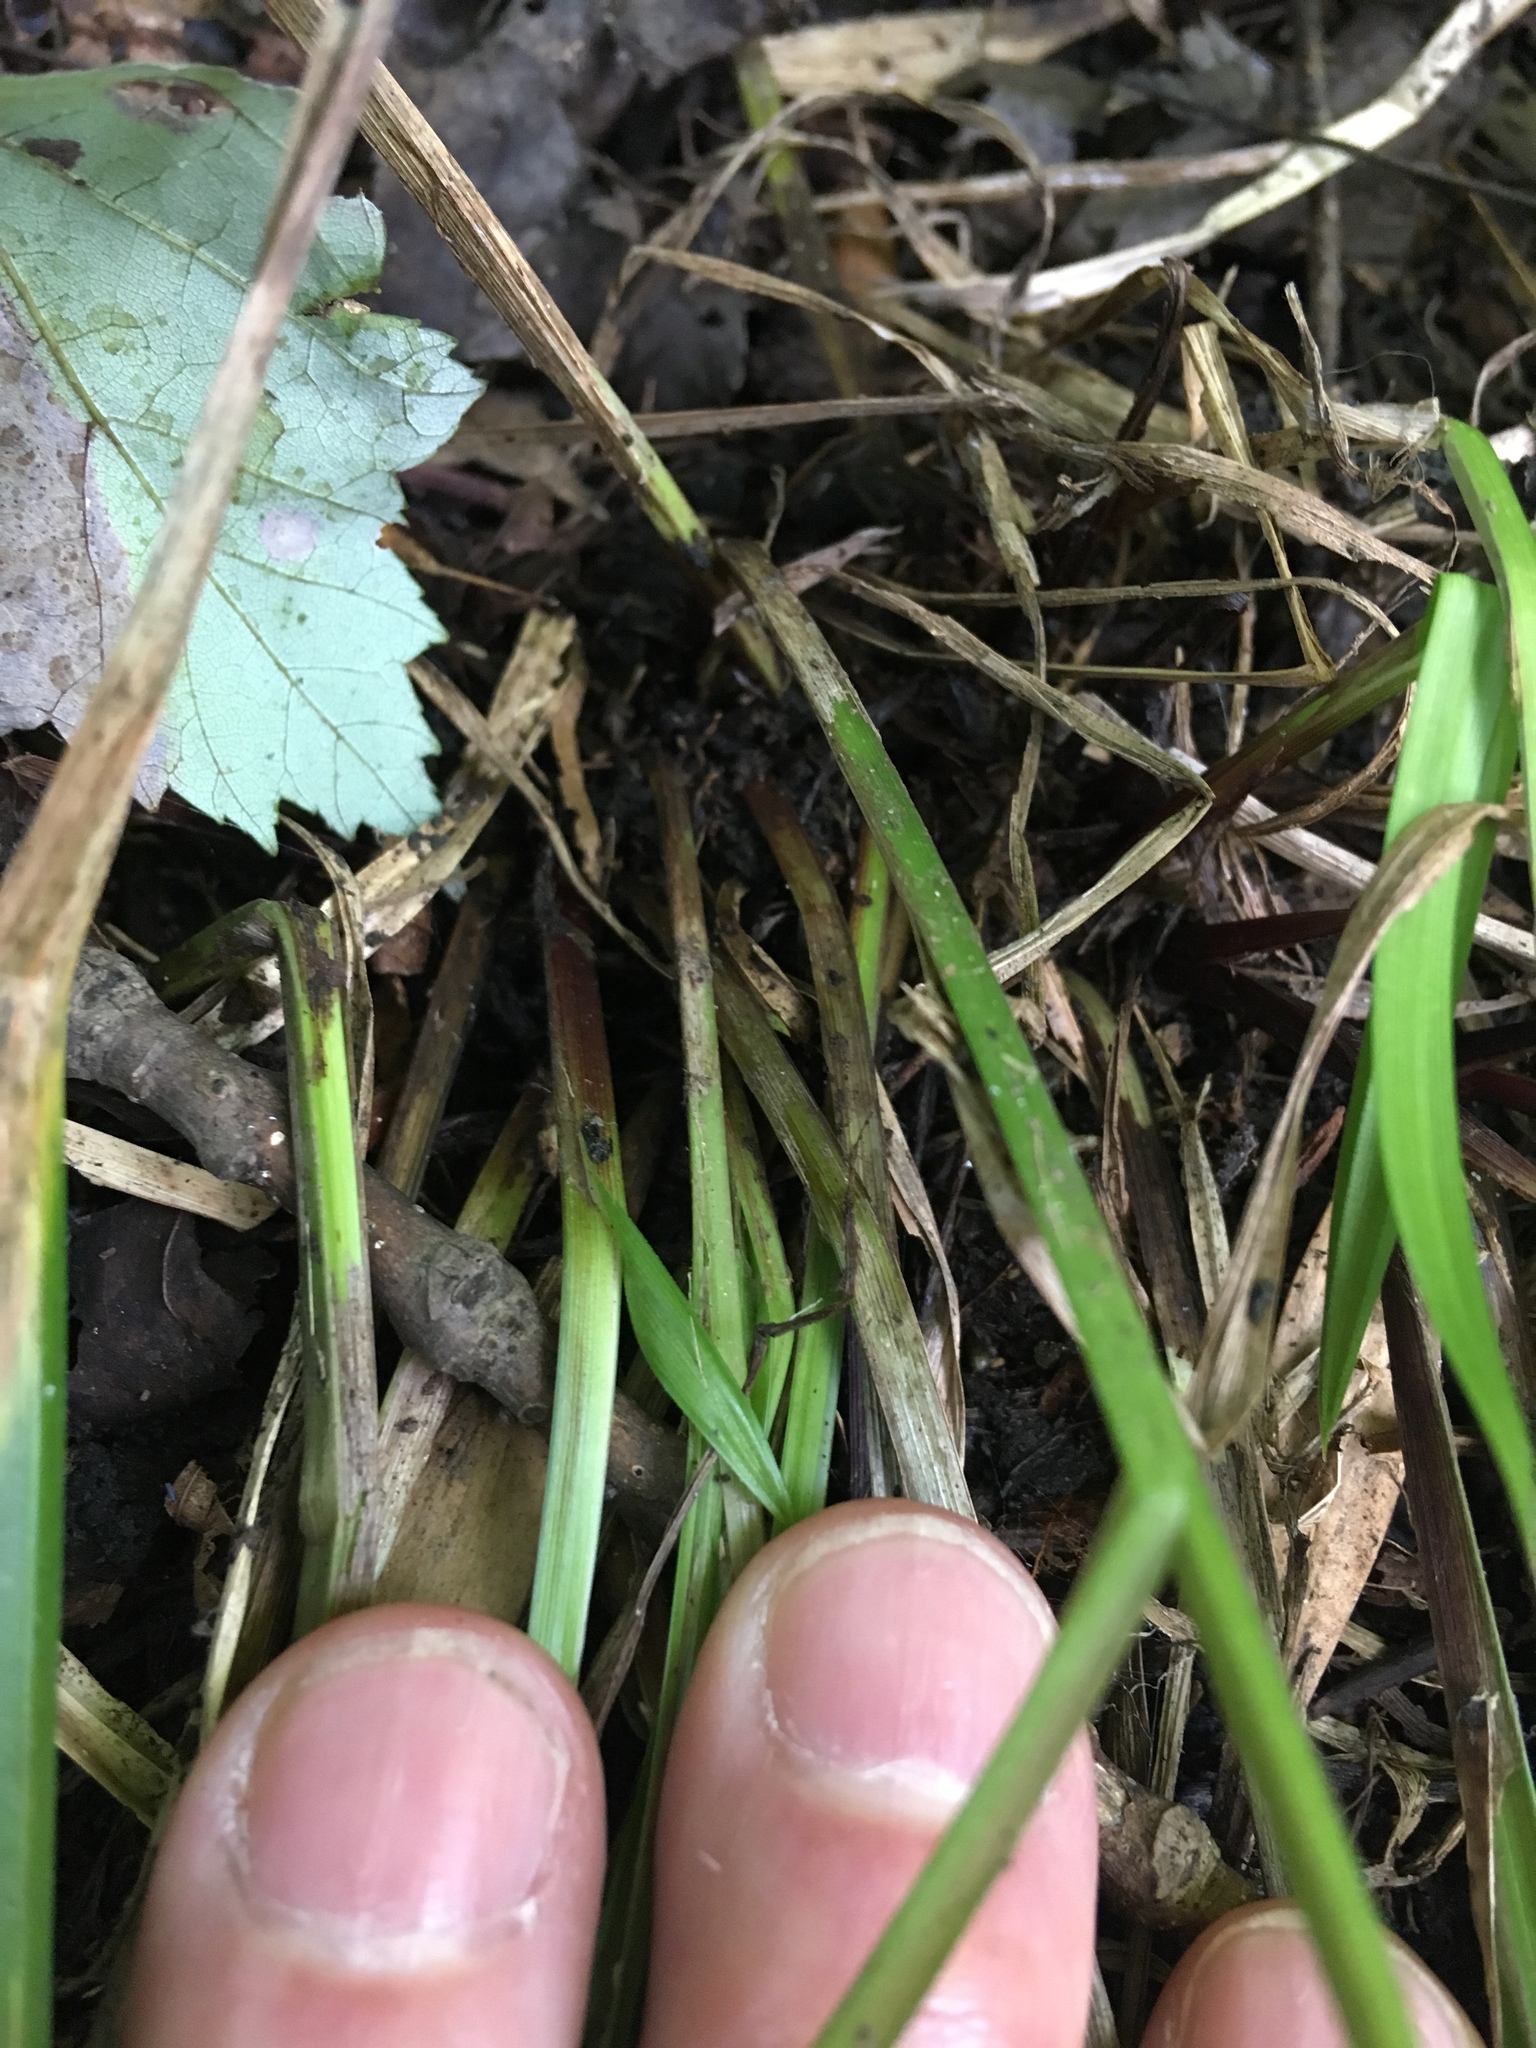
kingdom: Plantae
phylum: Tracheophyta
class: Liliopsida
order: Poales
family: Cyperaceae
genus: Carex
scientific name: Carex lurida
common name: Sallow sedge
